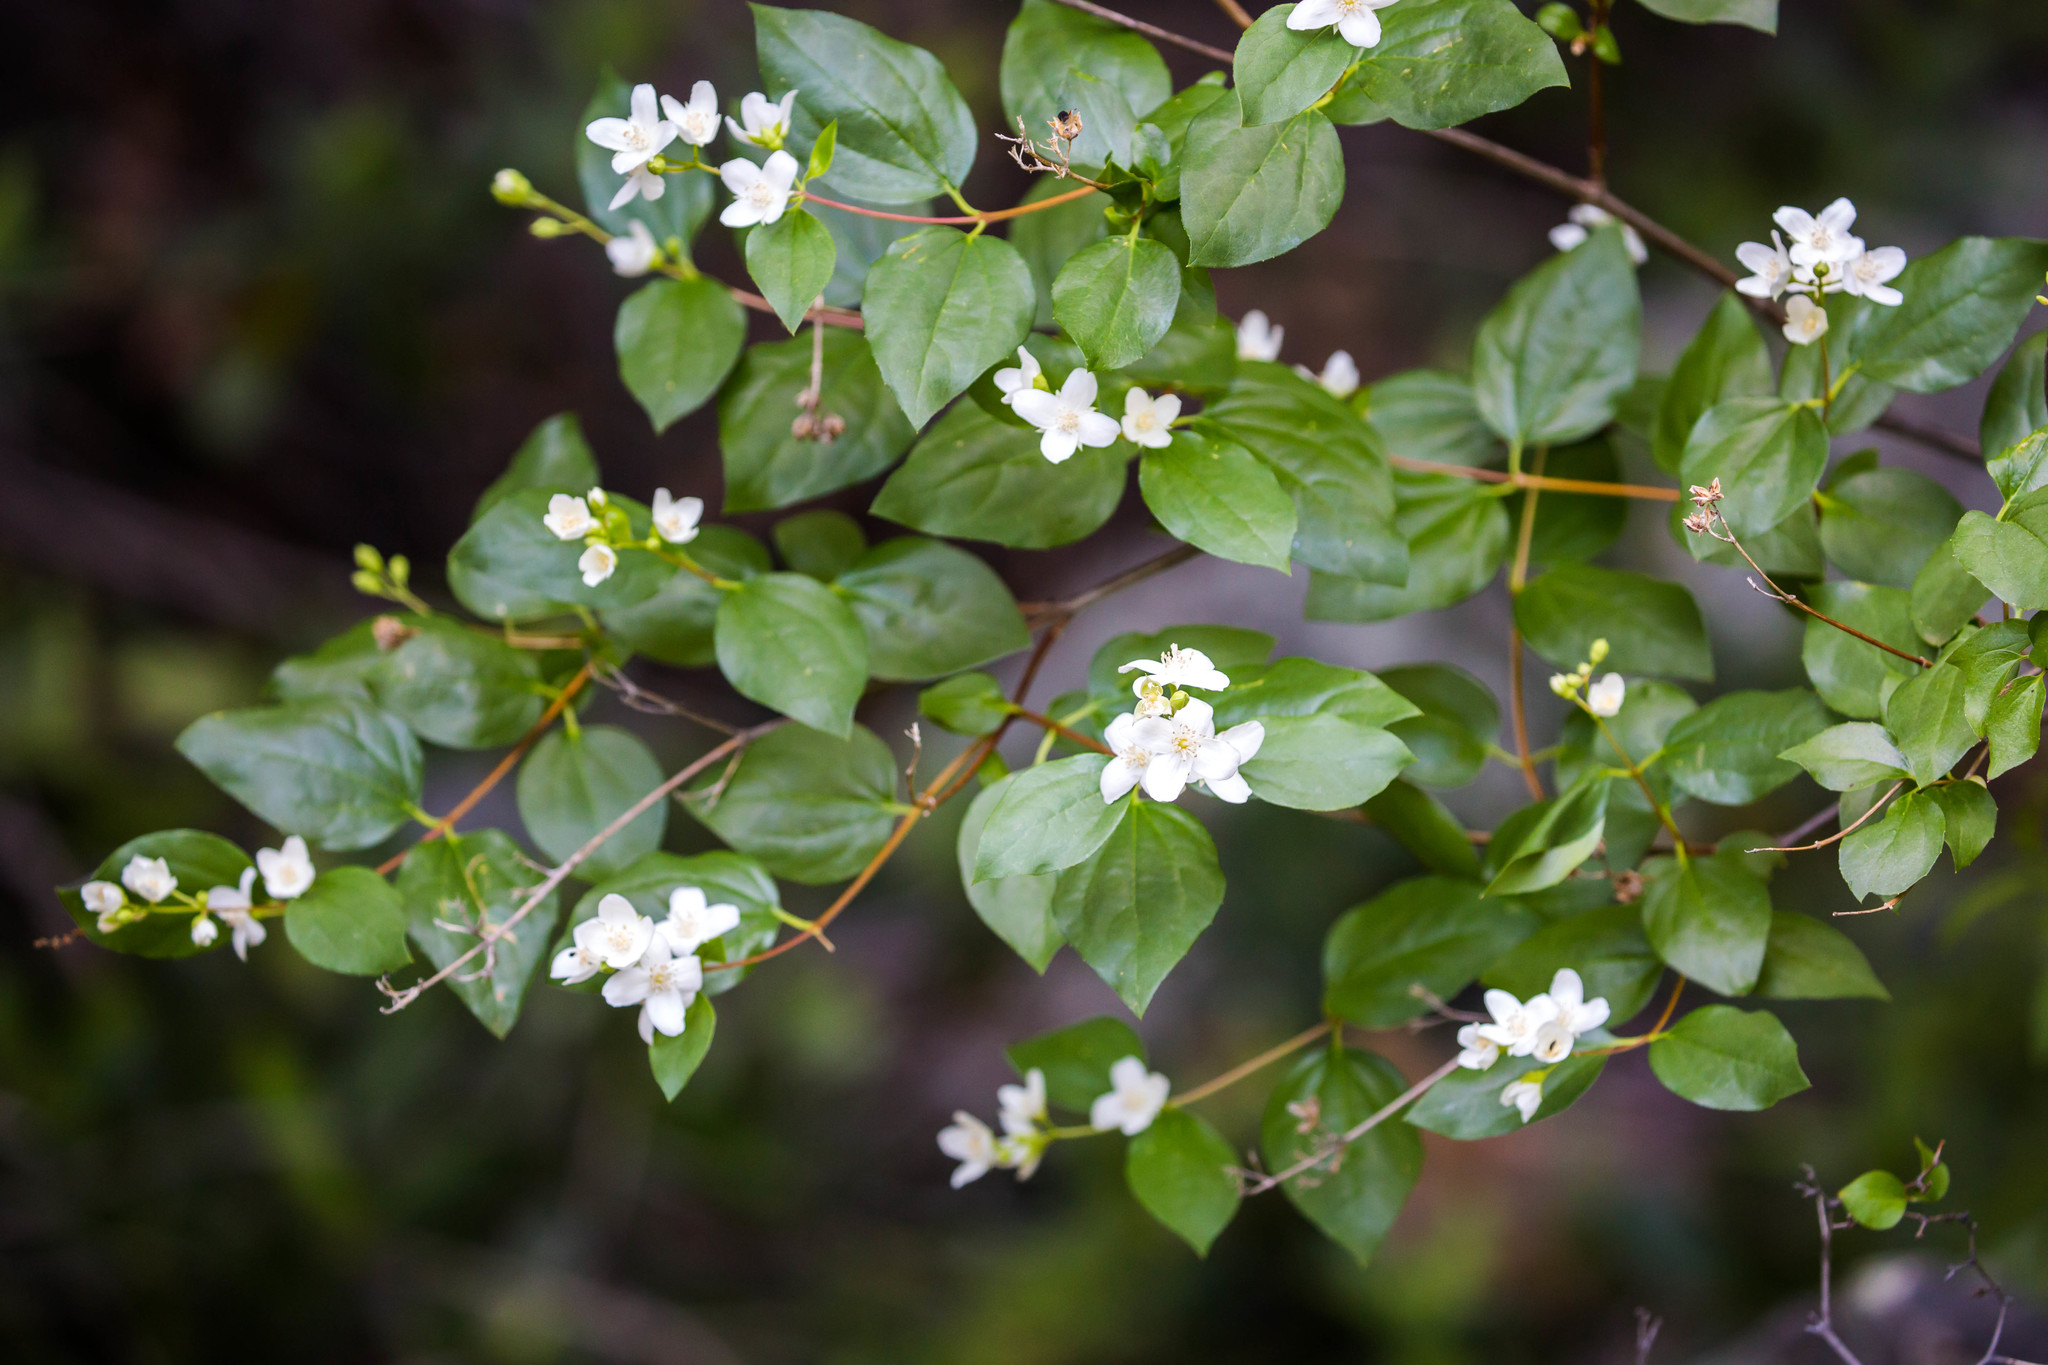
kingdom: Plantae
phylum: Tracheophyta
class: Magnoliopsida
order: Cornales
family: Hydrangeaceae
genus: Philadelphus
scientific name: Philadelphus lewisii
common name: Lewis's mock orange
